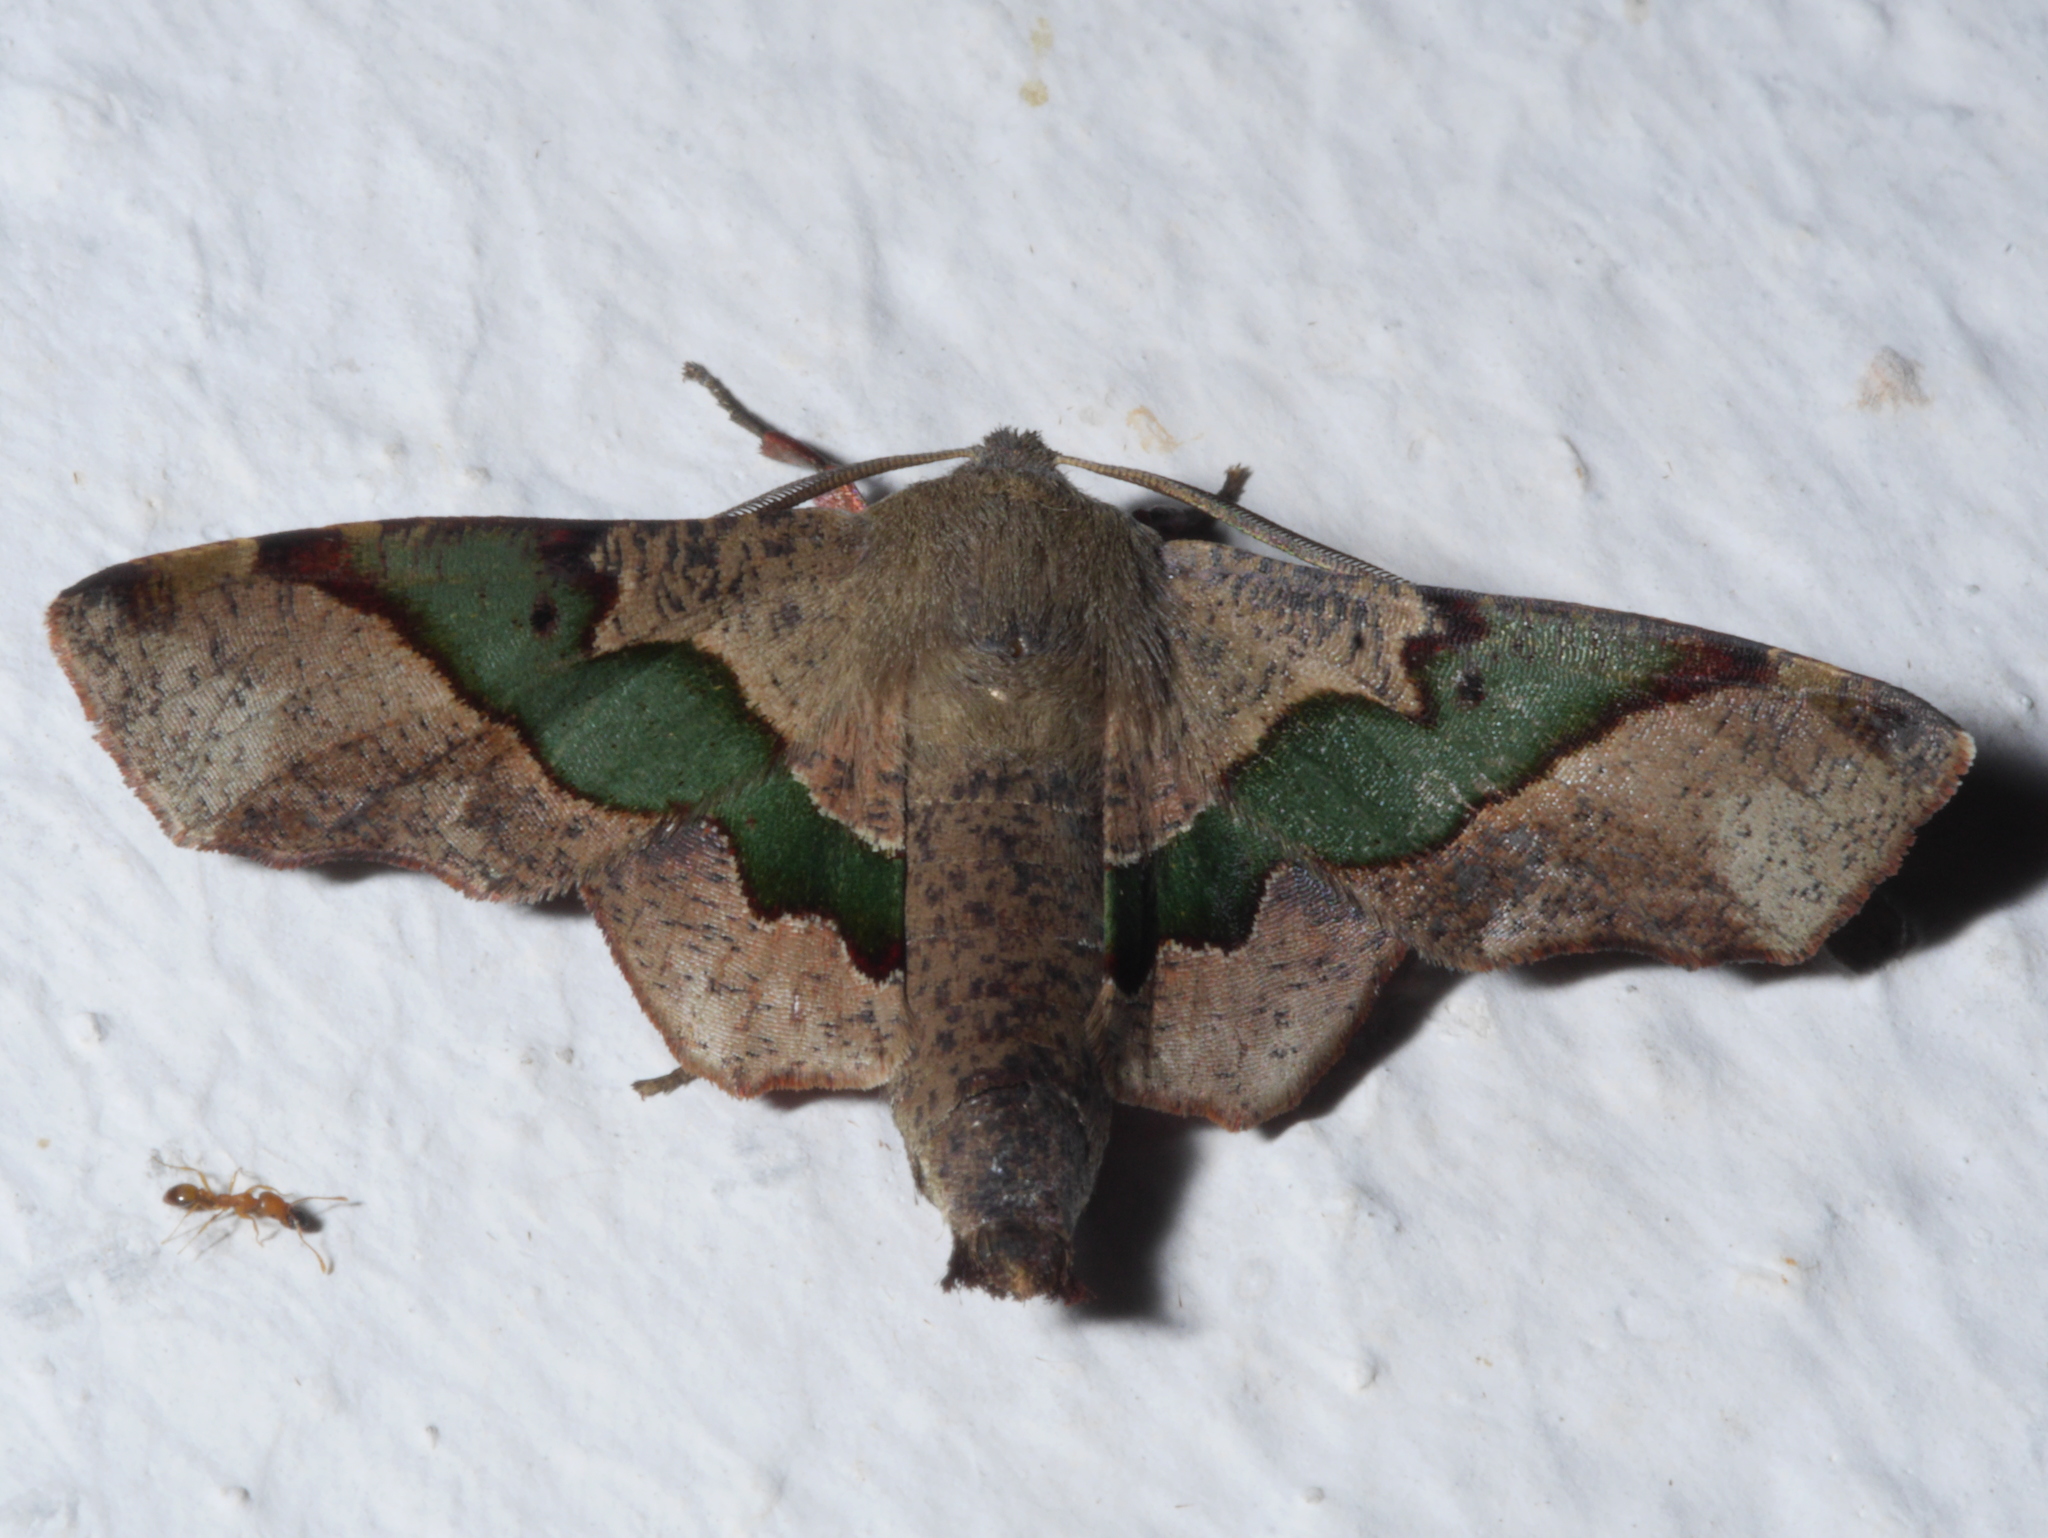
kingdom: Animalia
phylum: Arthropoda
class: Insecta
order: Lepidoptera
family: Geometridae
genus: Euexia
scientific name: Euexia percnopus
